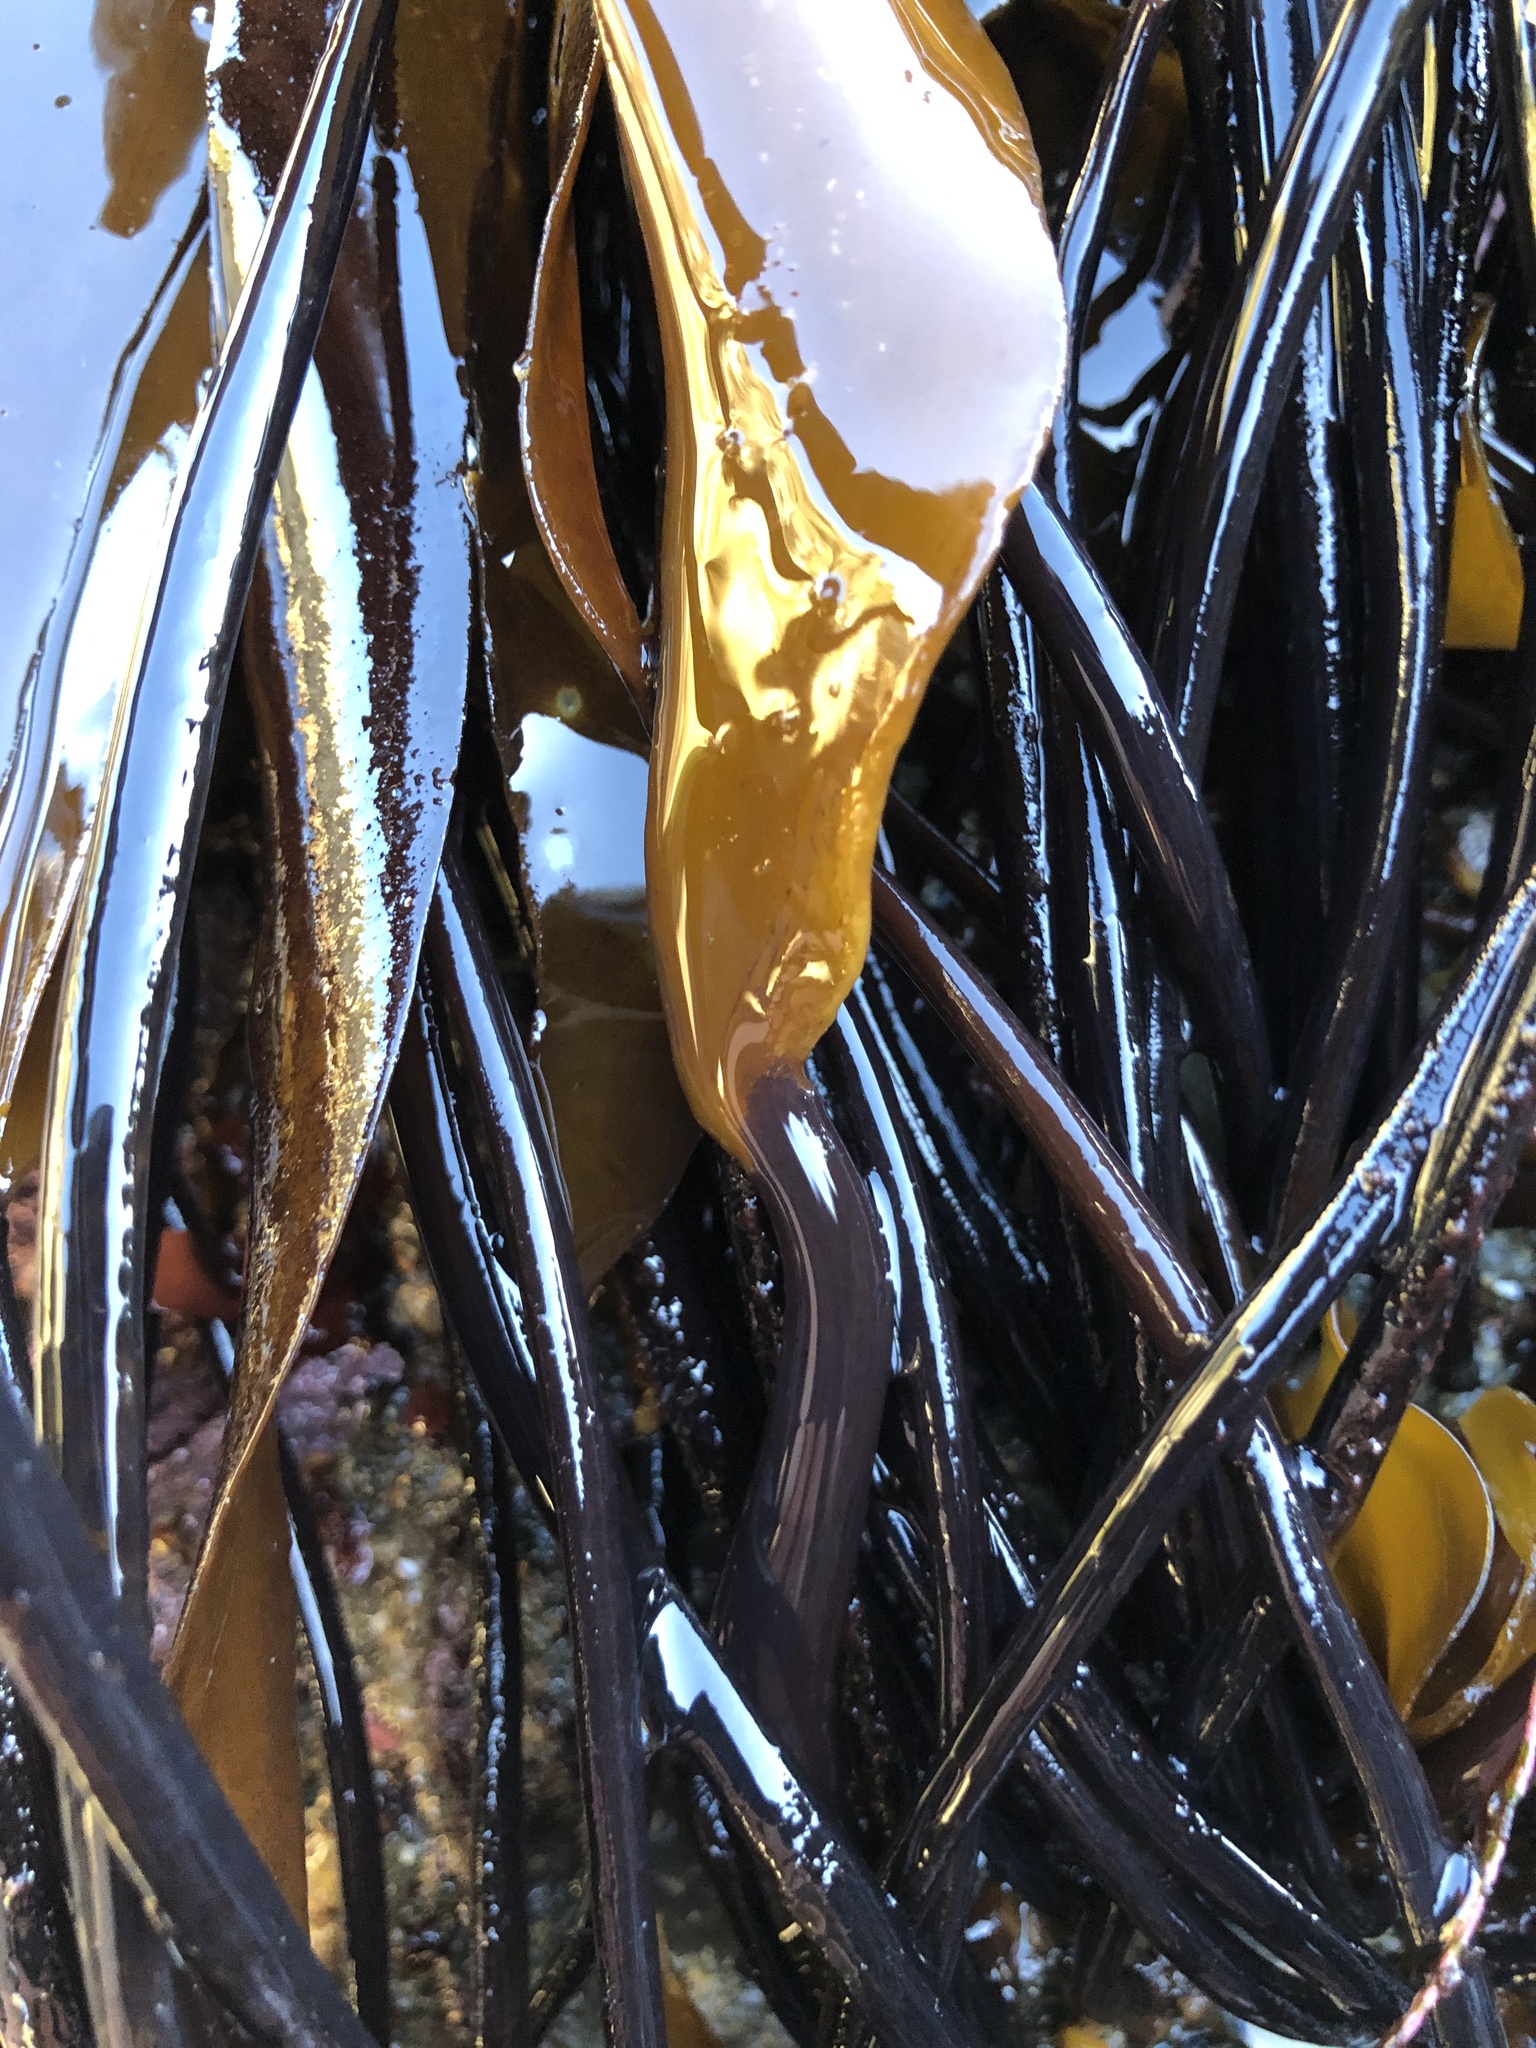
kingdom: Chromista
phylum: Ochrophyta
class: Phaeophyceae
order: Laminariales
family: Laminariaceae
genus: Laminaria
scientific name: Laminaria sinclairii
